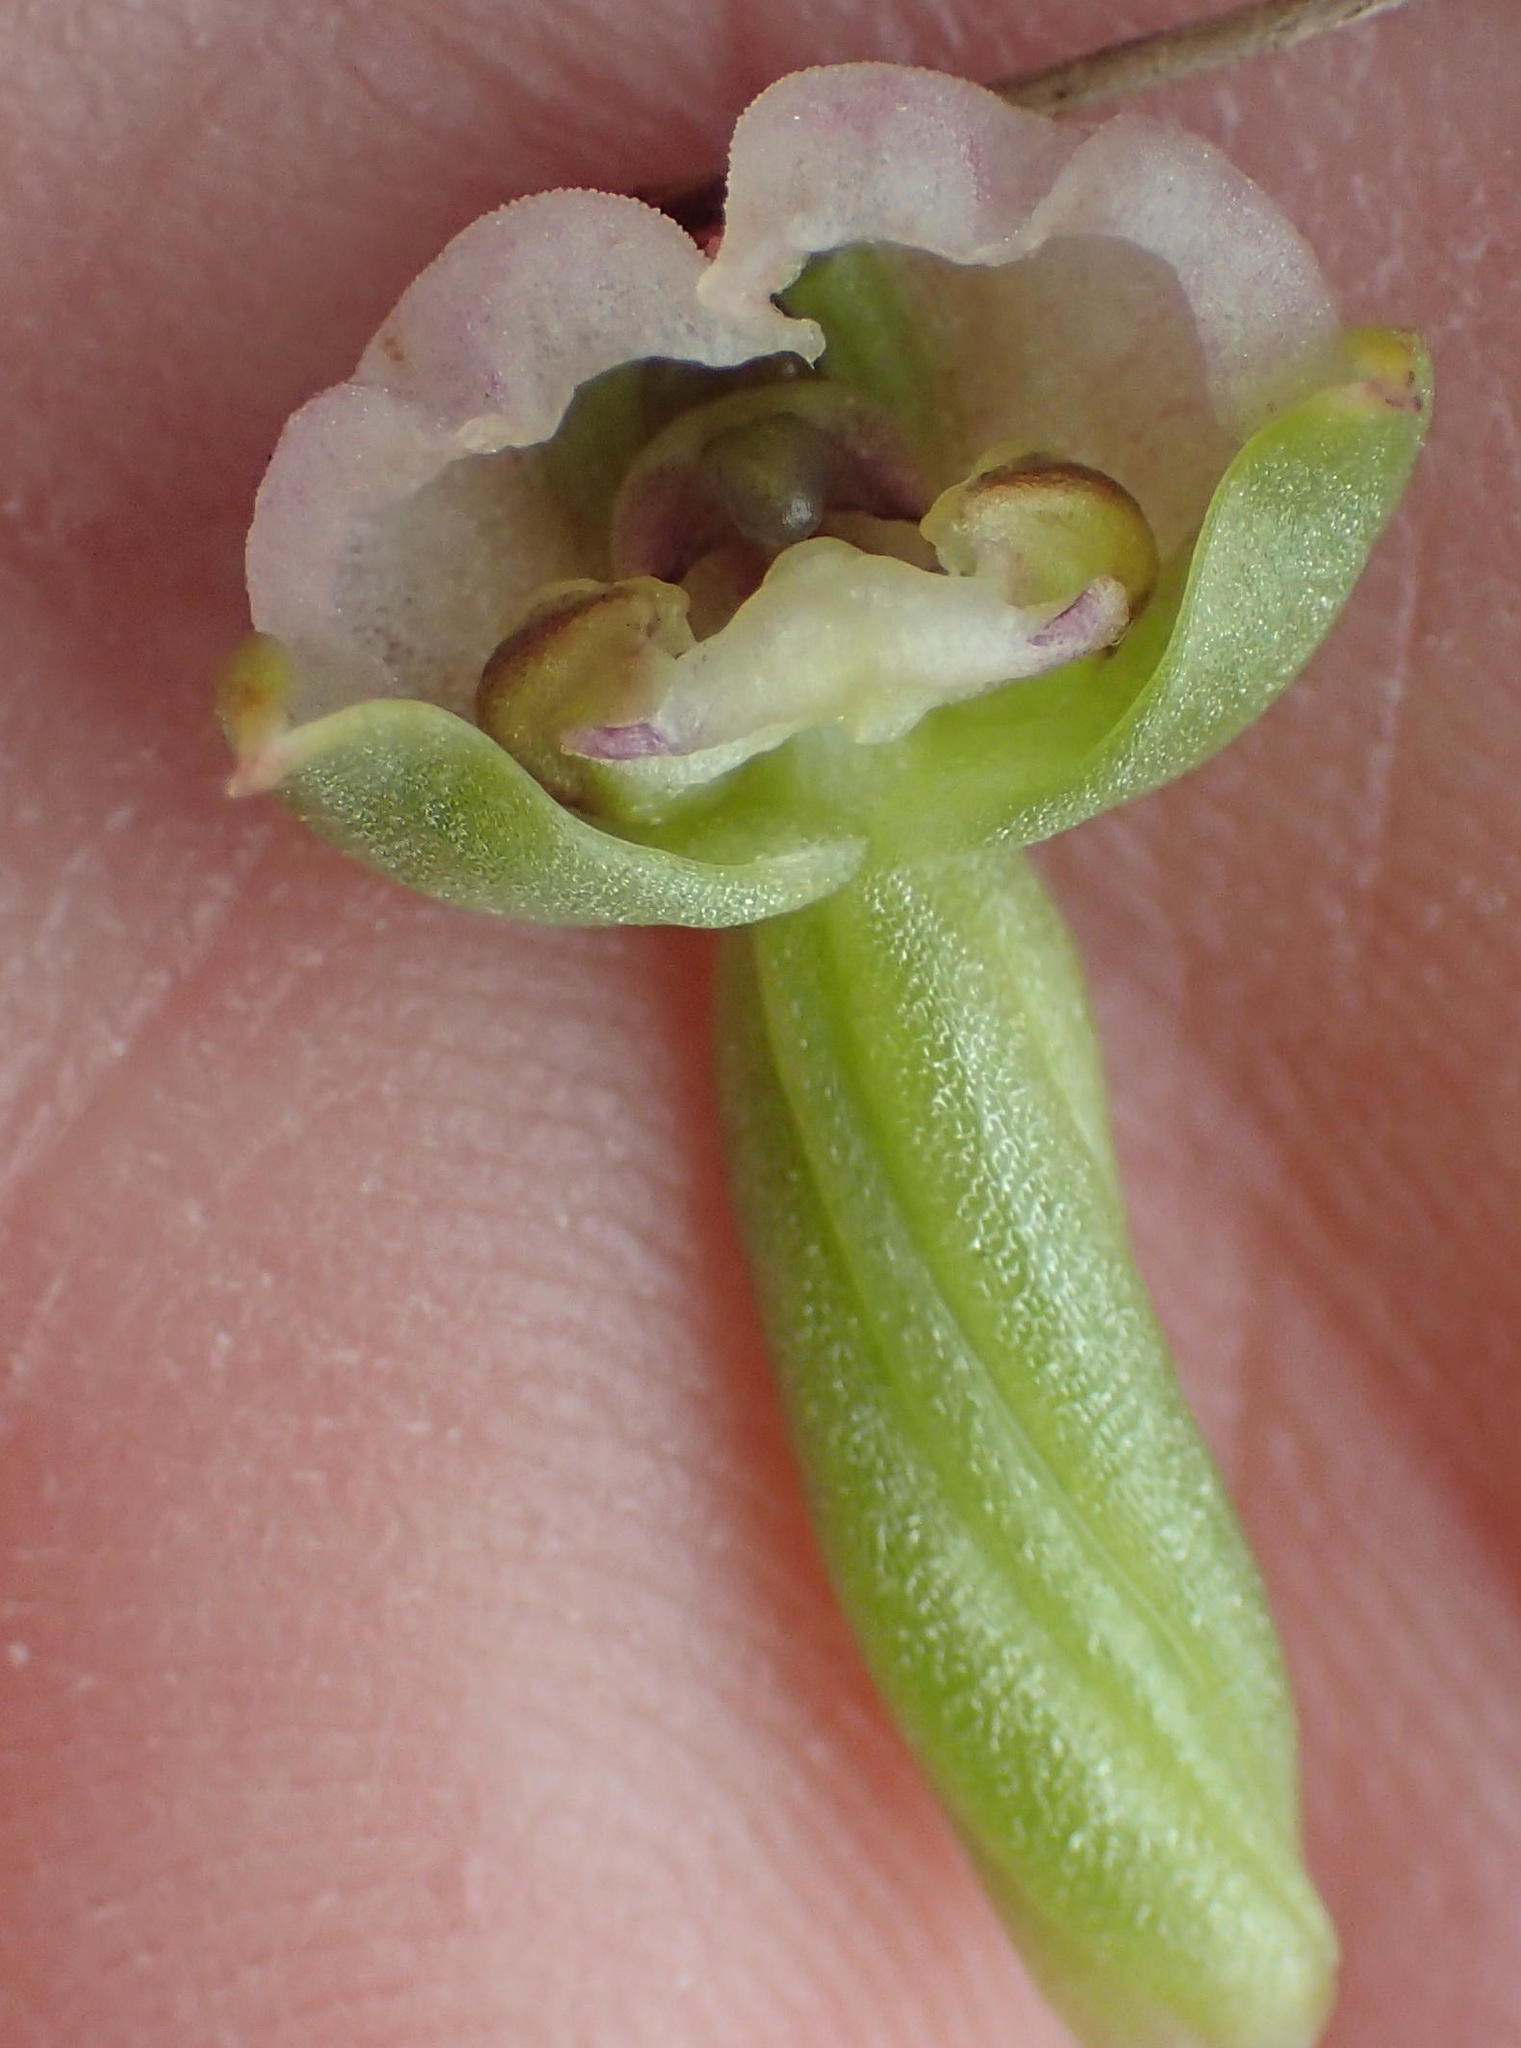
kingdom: Plantae
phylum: Tracheophyta
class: Liliopsida
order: Asparagales
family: Orchidaceae
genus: Evotella
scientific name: Evotella carnosa
